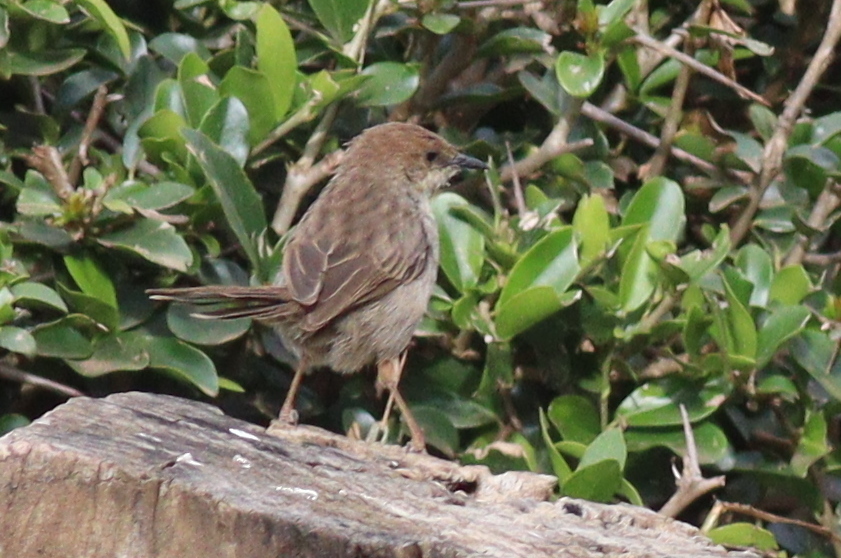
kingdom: Animalia
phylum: Chordata
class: Aves
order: Passeriformes
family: Cisticolidae
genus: Cisticola
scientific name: Cisticola hunteri
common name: Hunter's cisticola
